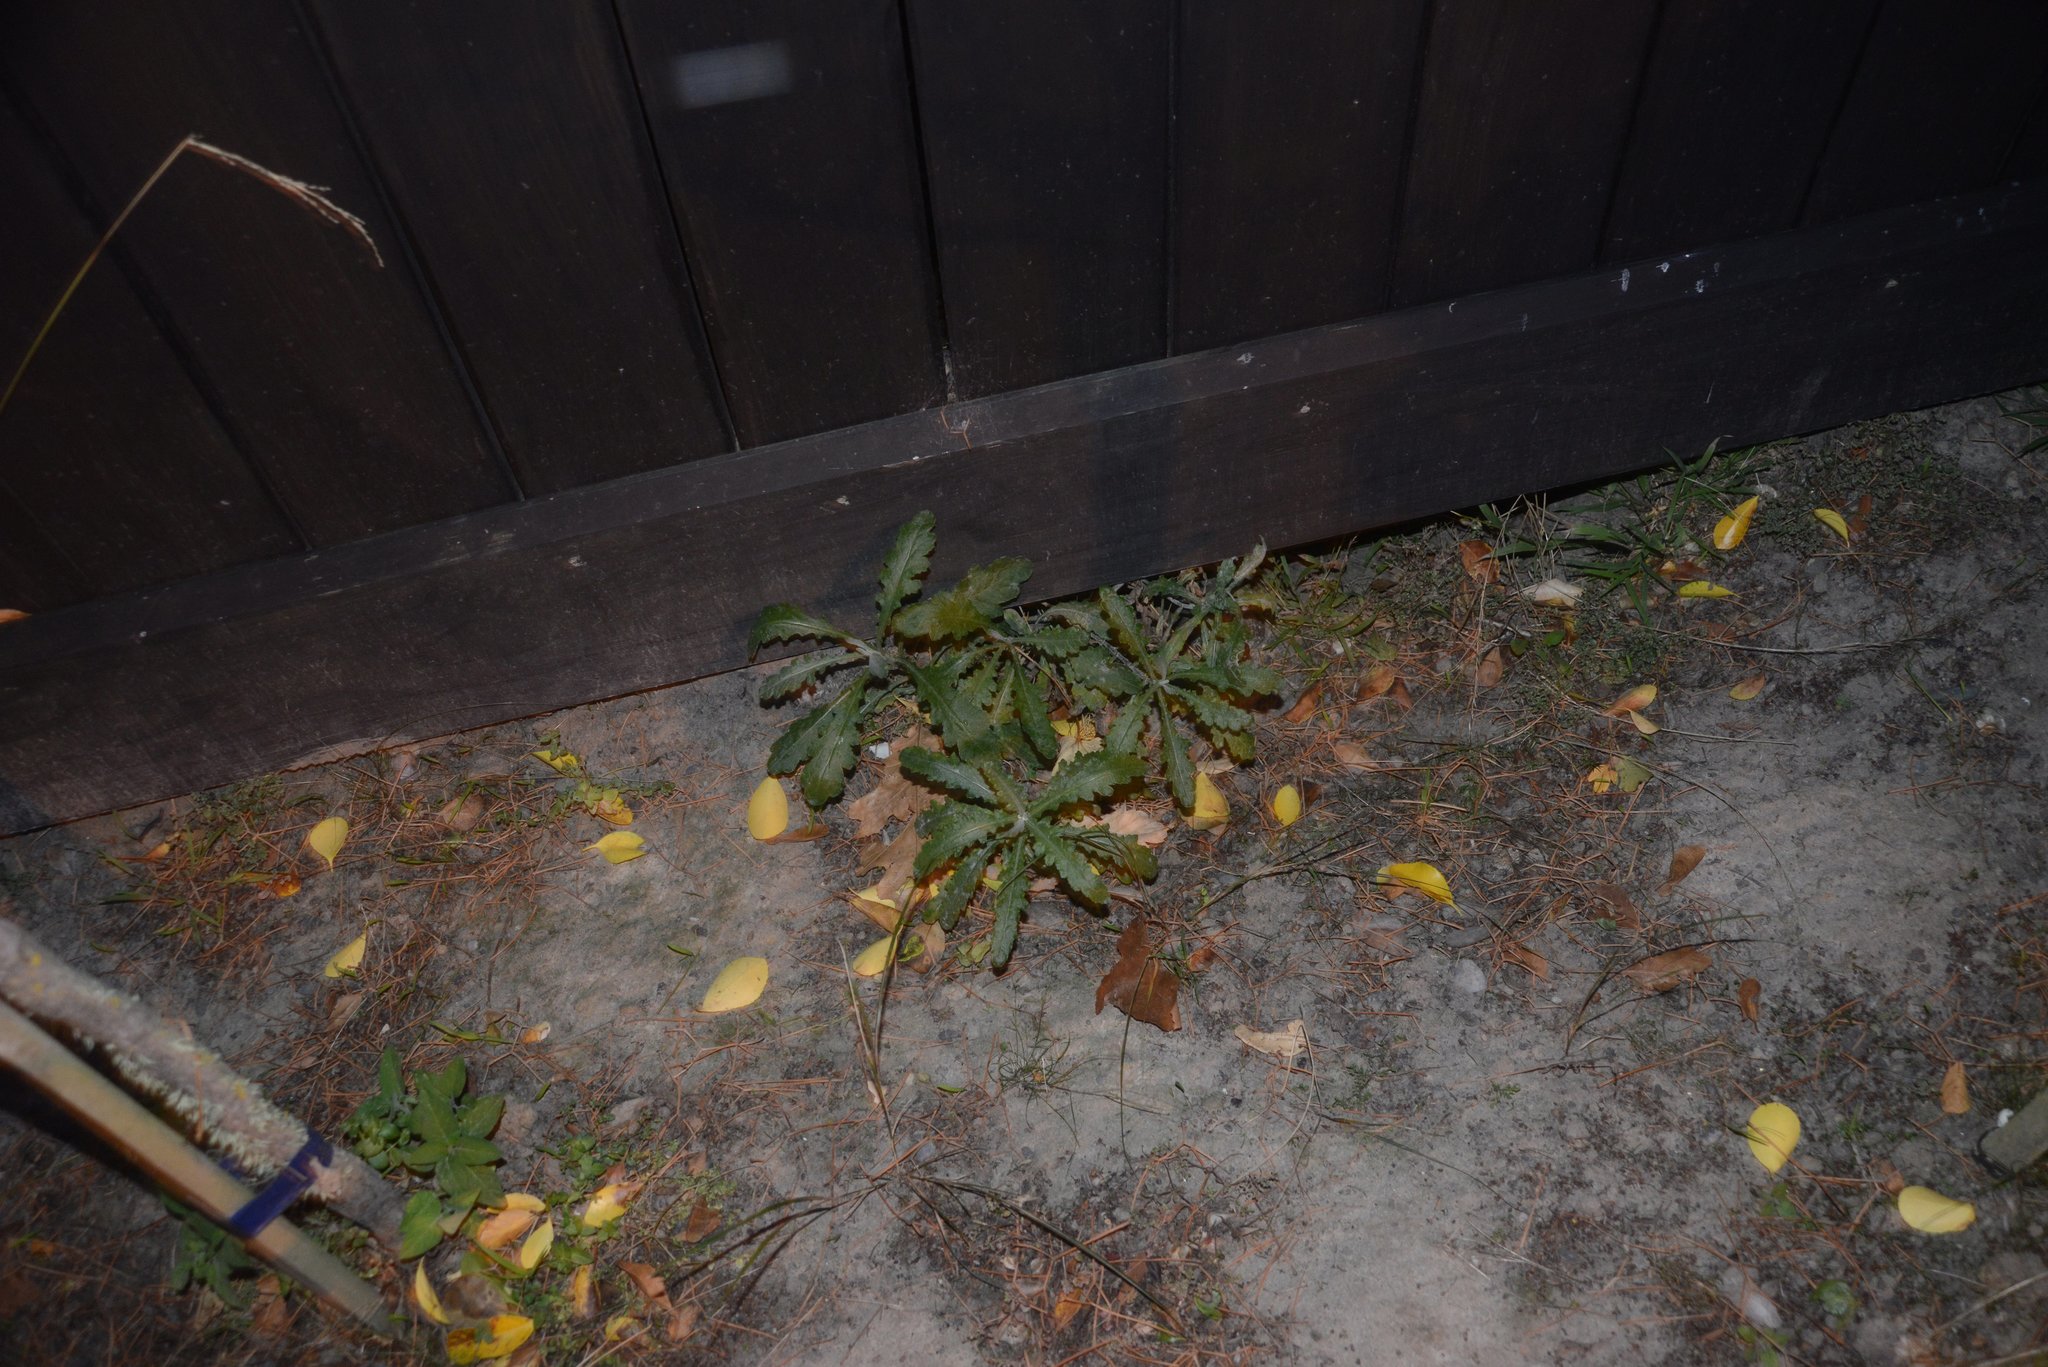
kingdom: Plantae
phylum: Tracheophyta
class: Magnoliopsida
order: Asterales
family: Asteraceae
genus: Senecio
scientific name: Senecio glomeratus
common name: Cutleaf burnweed
